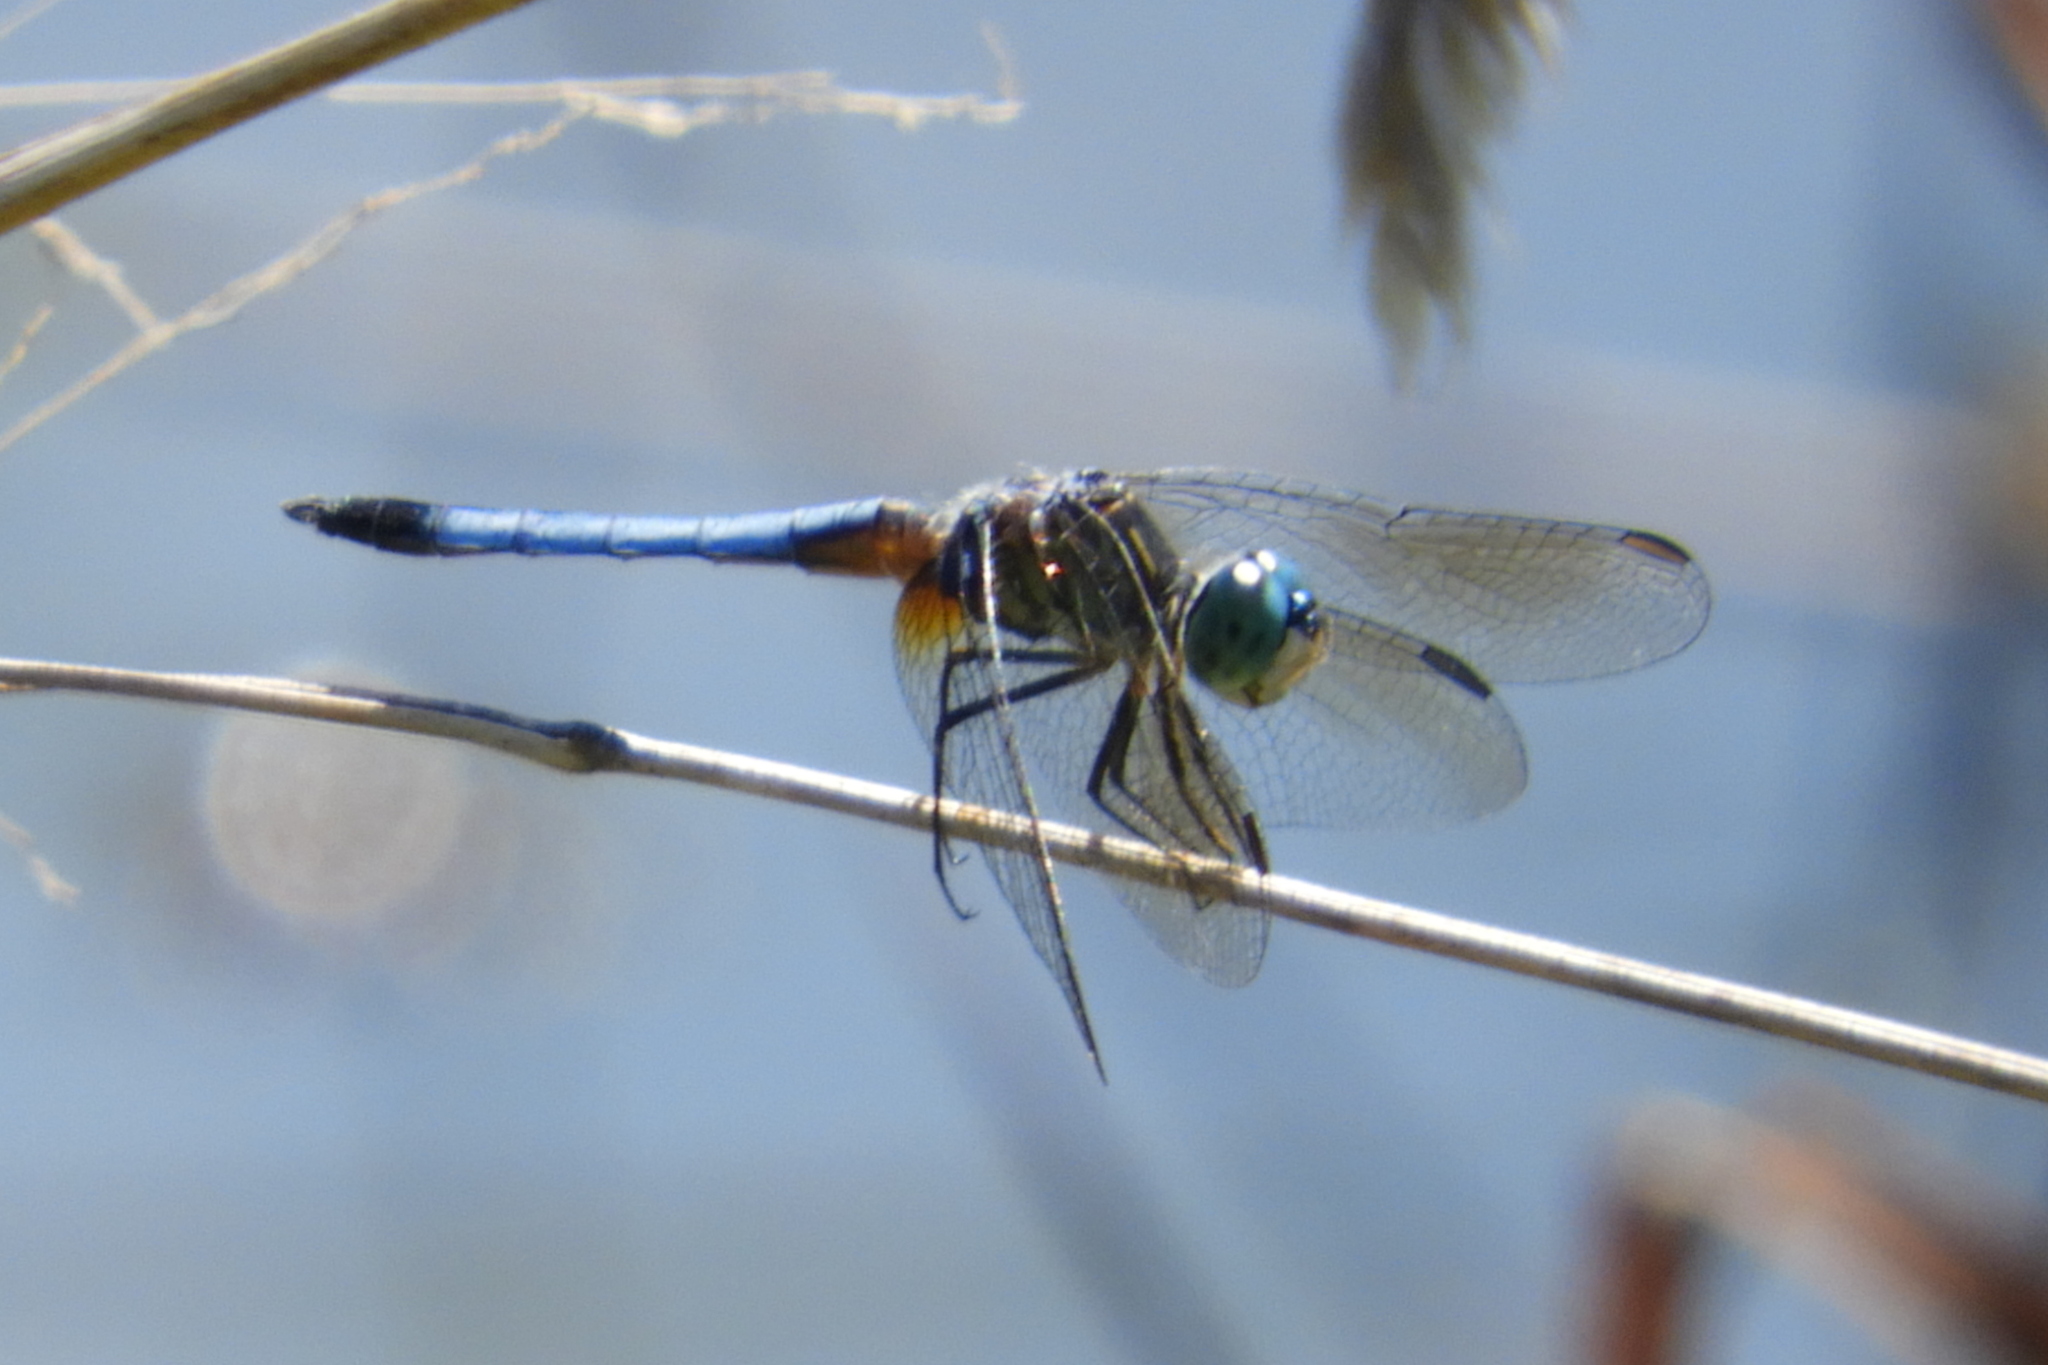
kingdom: Animalia
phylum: Arthropoda
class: Insecta
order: Odonata
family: Libellulidae
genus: Pachydiplax
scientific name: Pachydiplax longipennis
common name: Blue dasher
